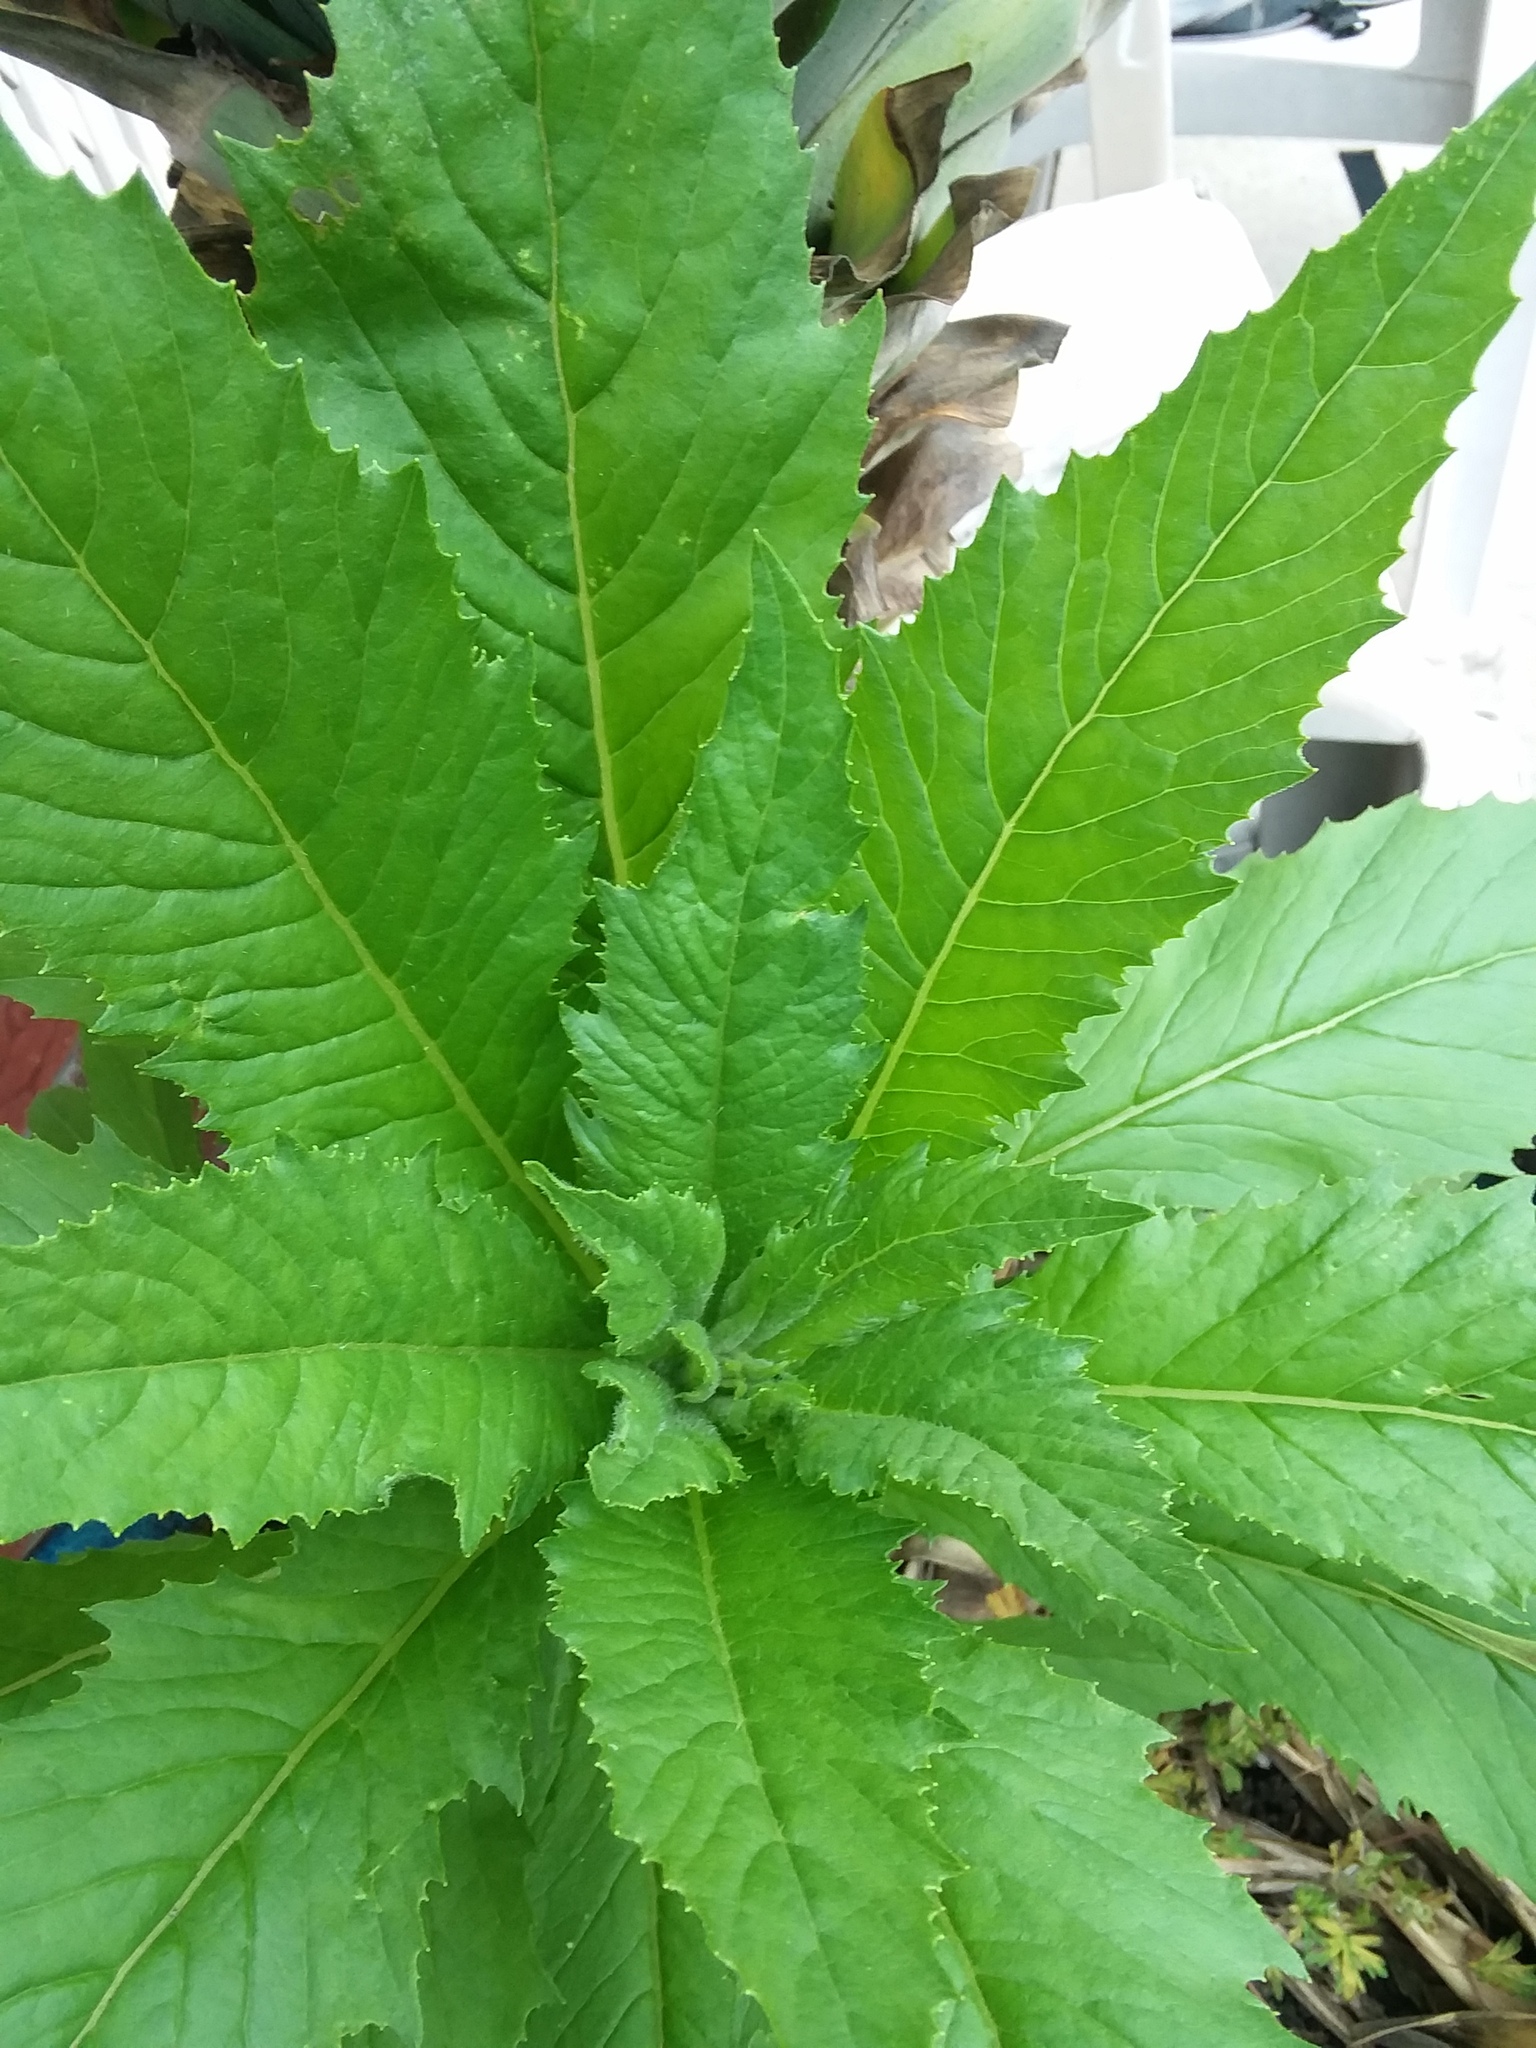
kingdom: Plantae
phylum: Tracheophyta
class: Magnoliopsida
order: Asterales
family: Asteraceae
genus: Erechtites
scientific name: Erechtites hieraciifolius
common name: American burnweed
